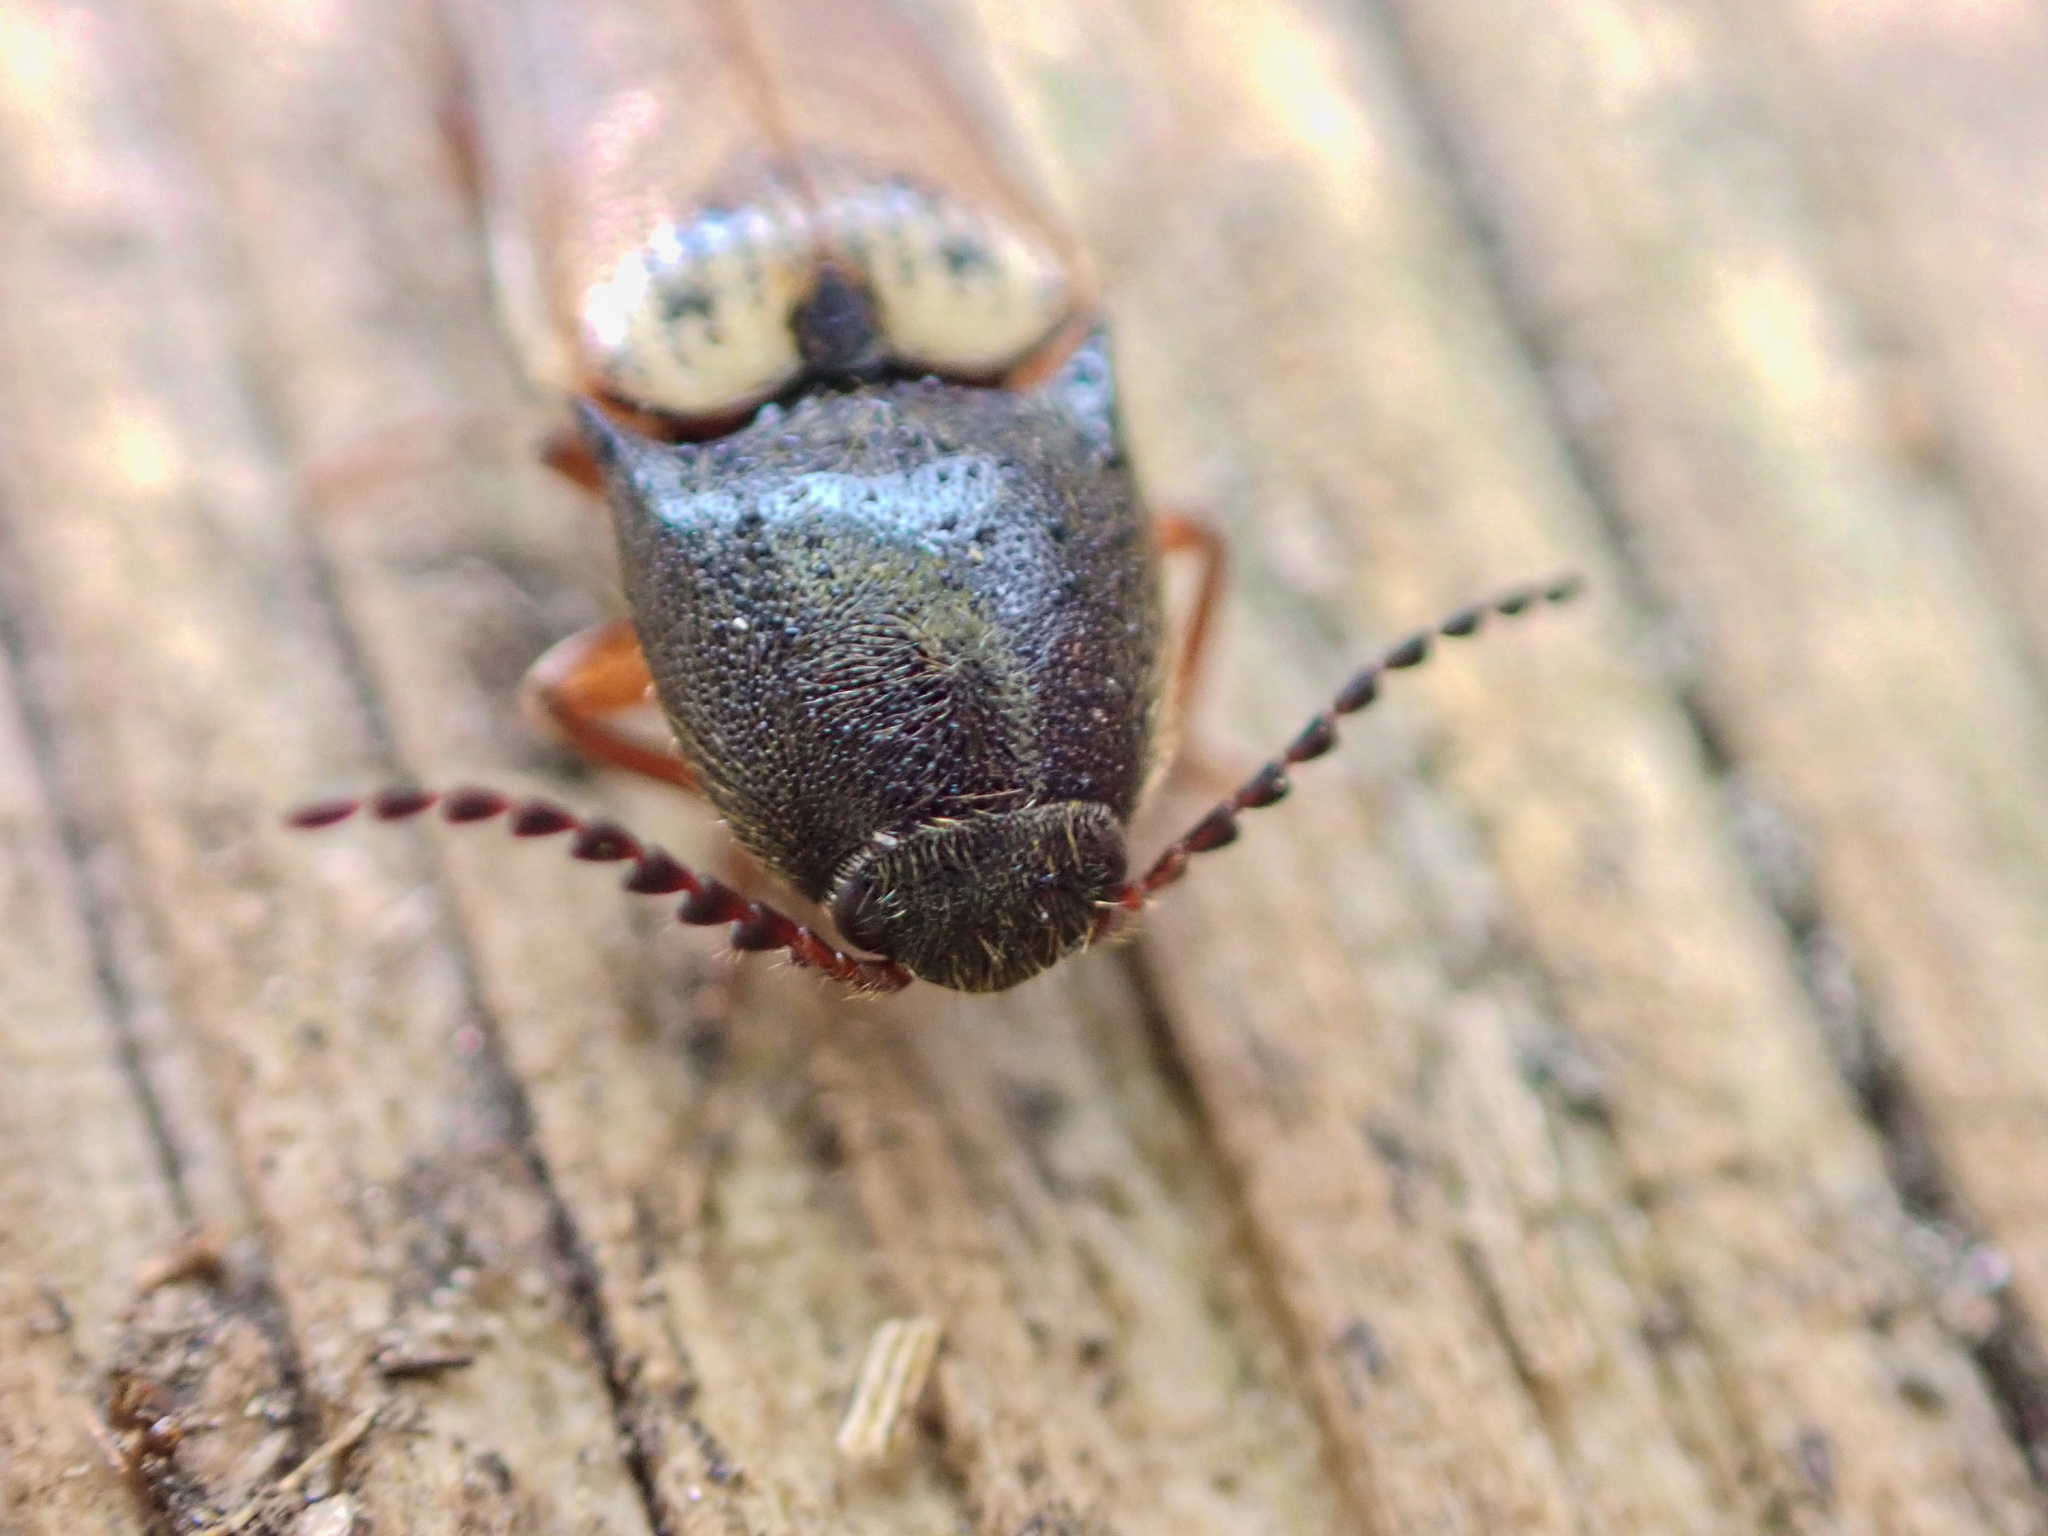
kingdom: Animalia
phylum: Arthropoda
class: Insecta
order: Coleoptera
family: Elateridae
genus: Ampedus
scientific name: Ampedus nigricollis
